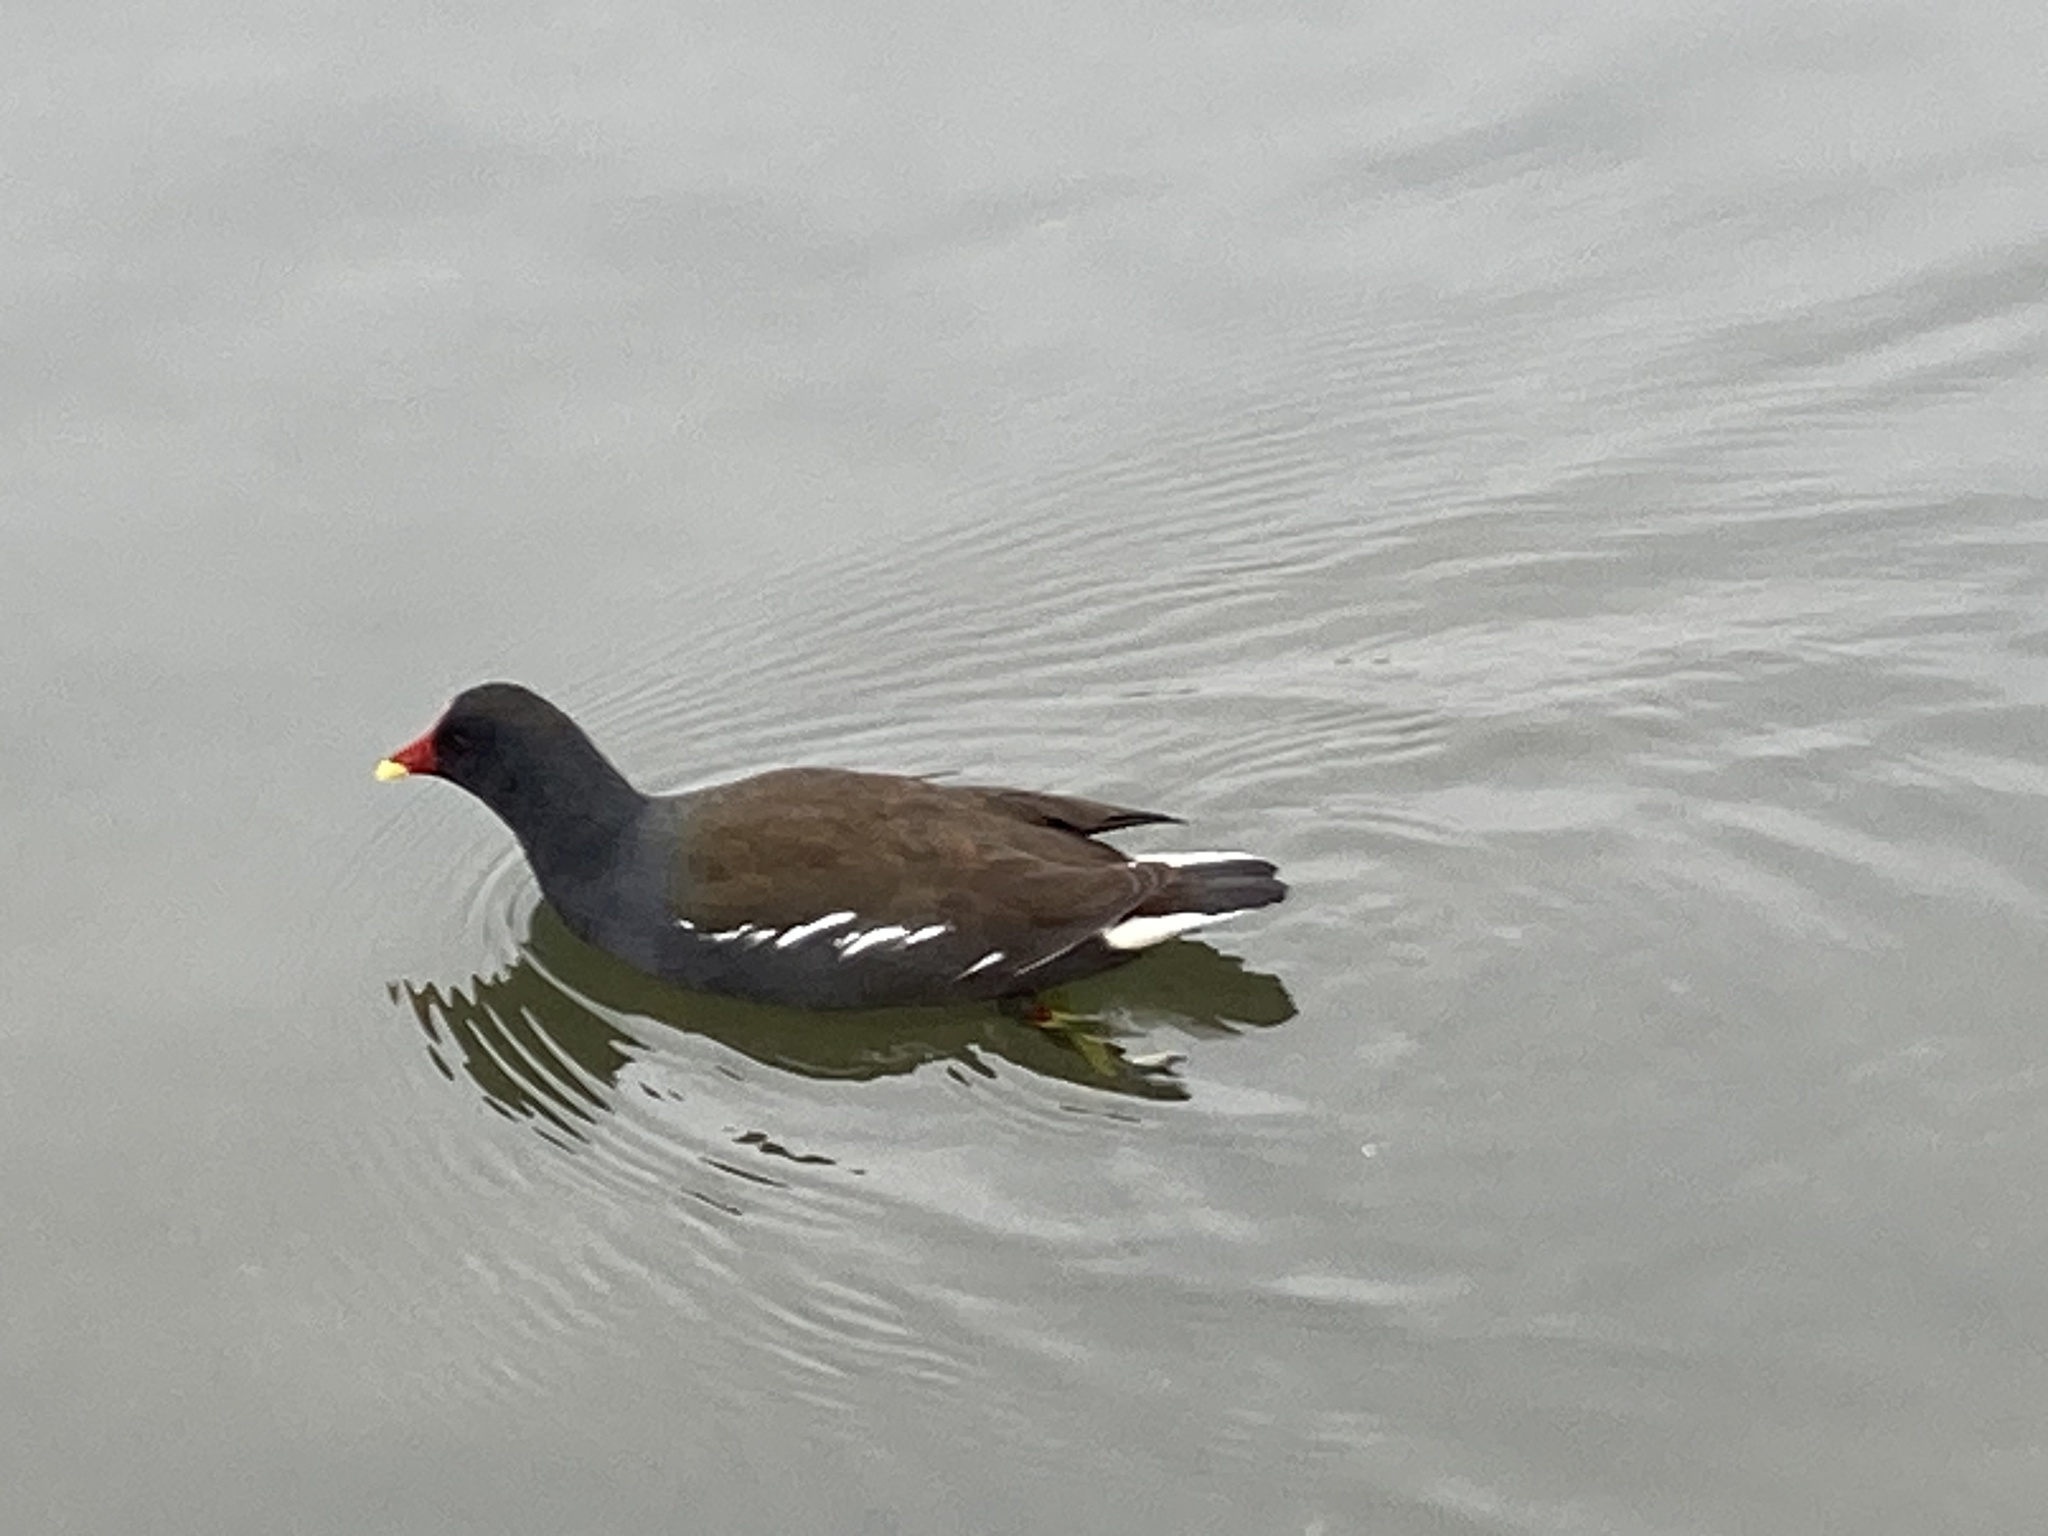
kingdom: Animalia
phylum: Chordata
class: Aves
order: Gruiformes
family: Rallidae
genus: Gallinula
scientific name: Gallinula chloropus
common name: Common moorhen
